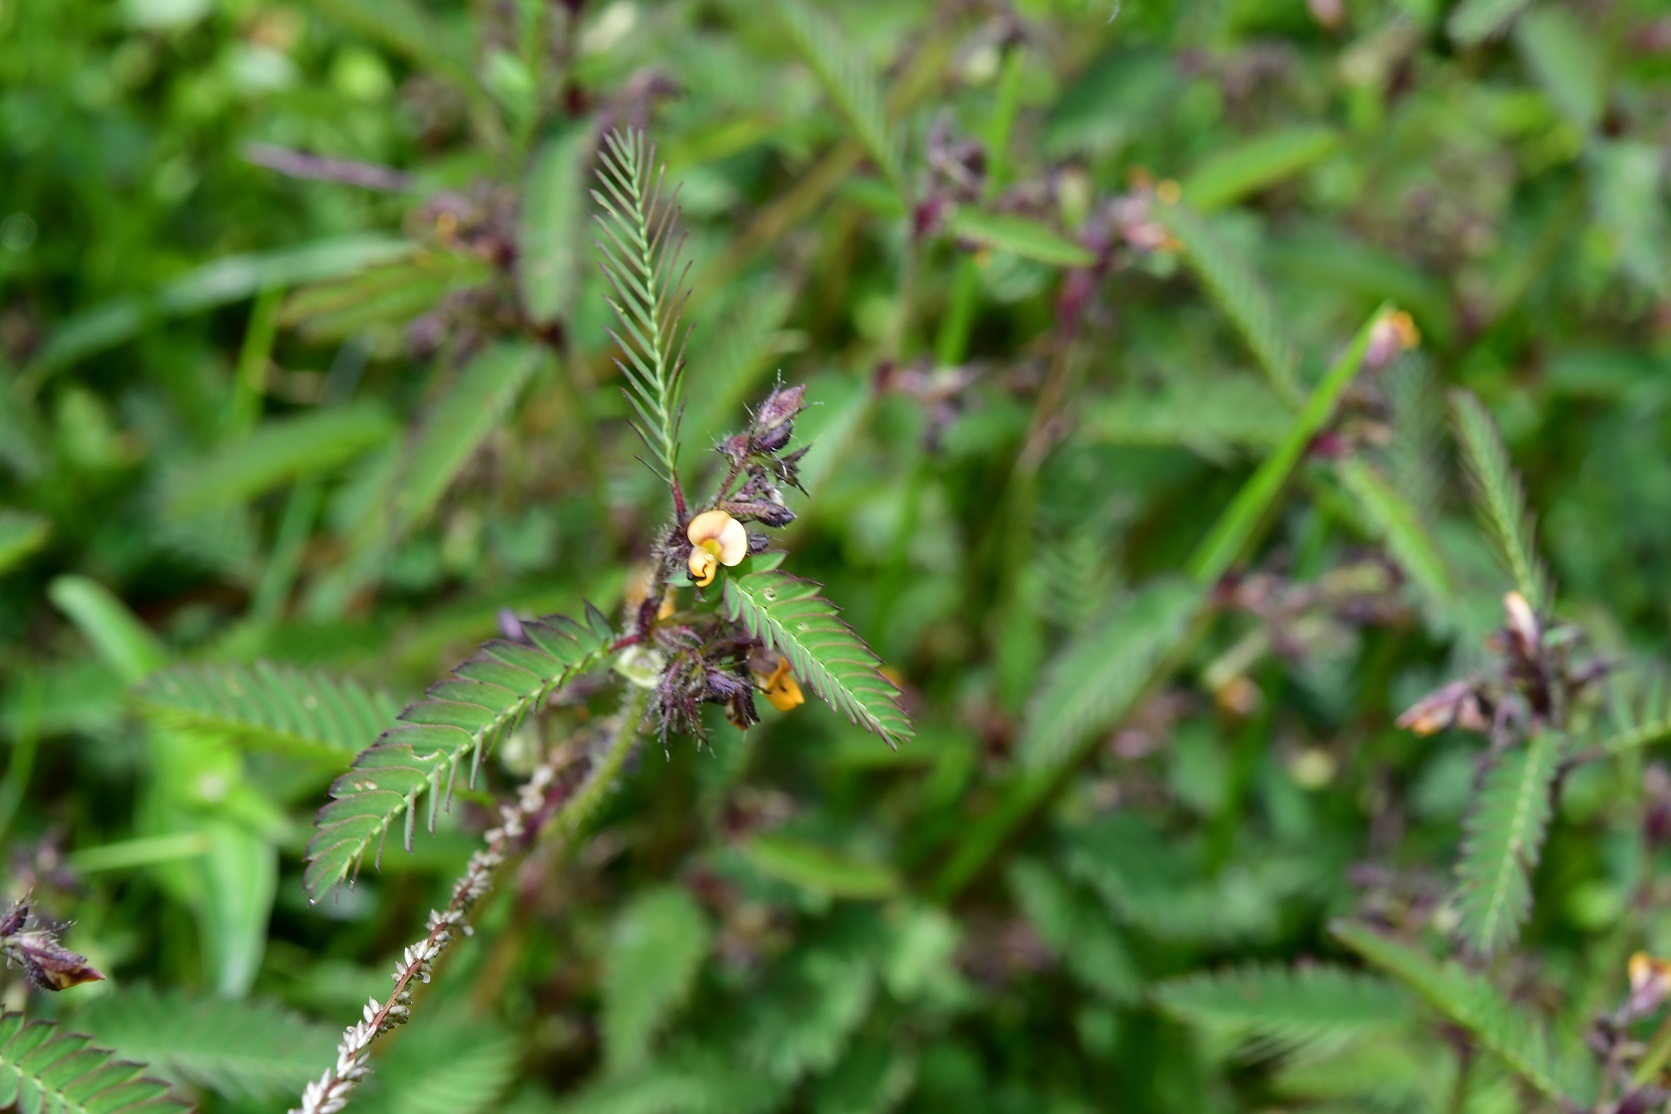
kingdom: Plantae
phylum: Tracheophyta
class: Magnoliopsida
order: Fabales
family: Fabaceae
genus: Aeschynomene
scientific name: Aeschynomene villosa
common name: Hairy-jointvetch
